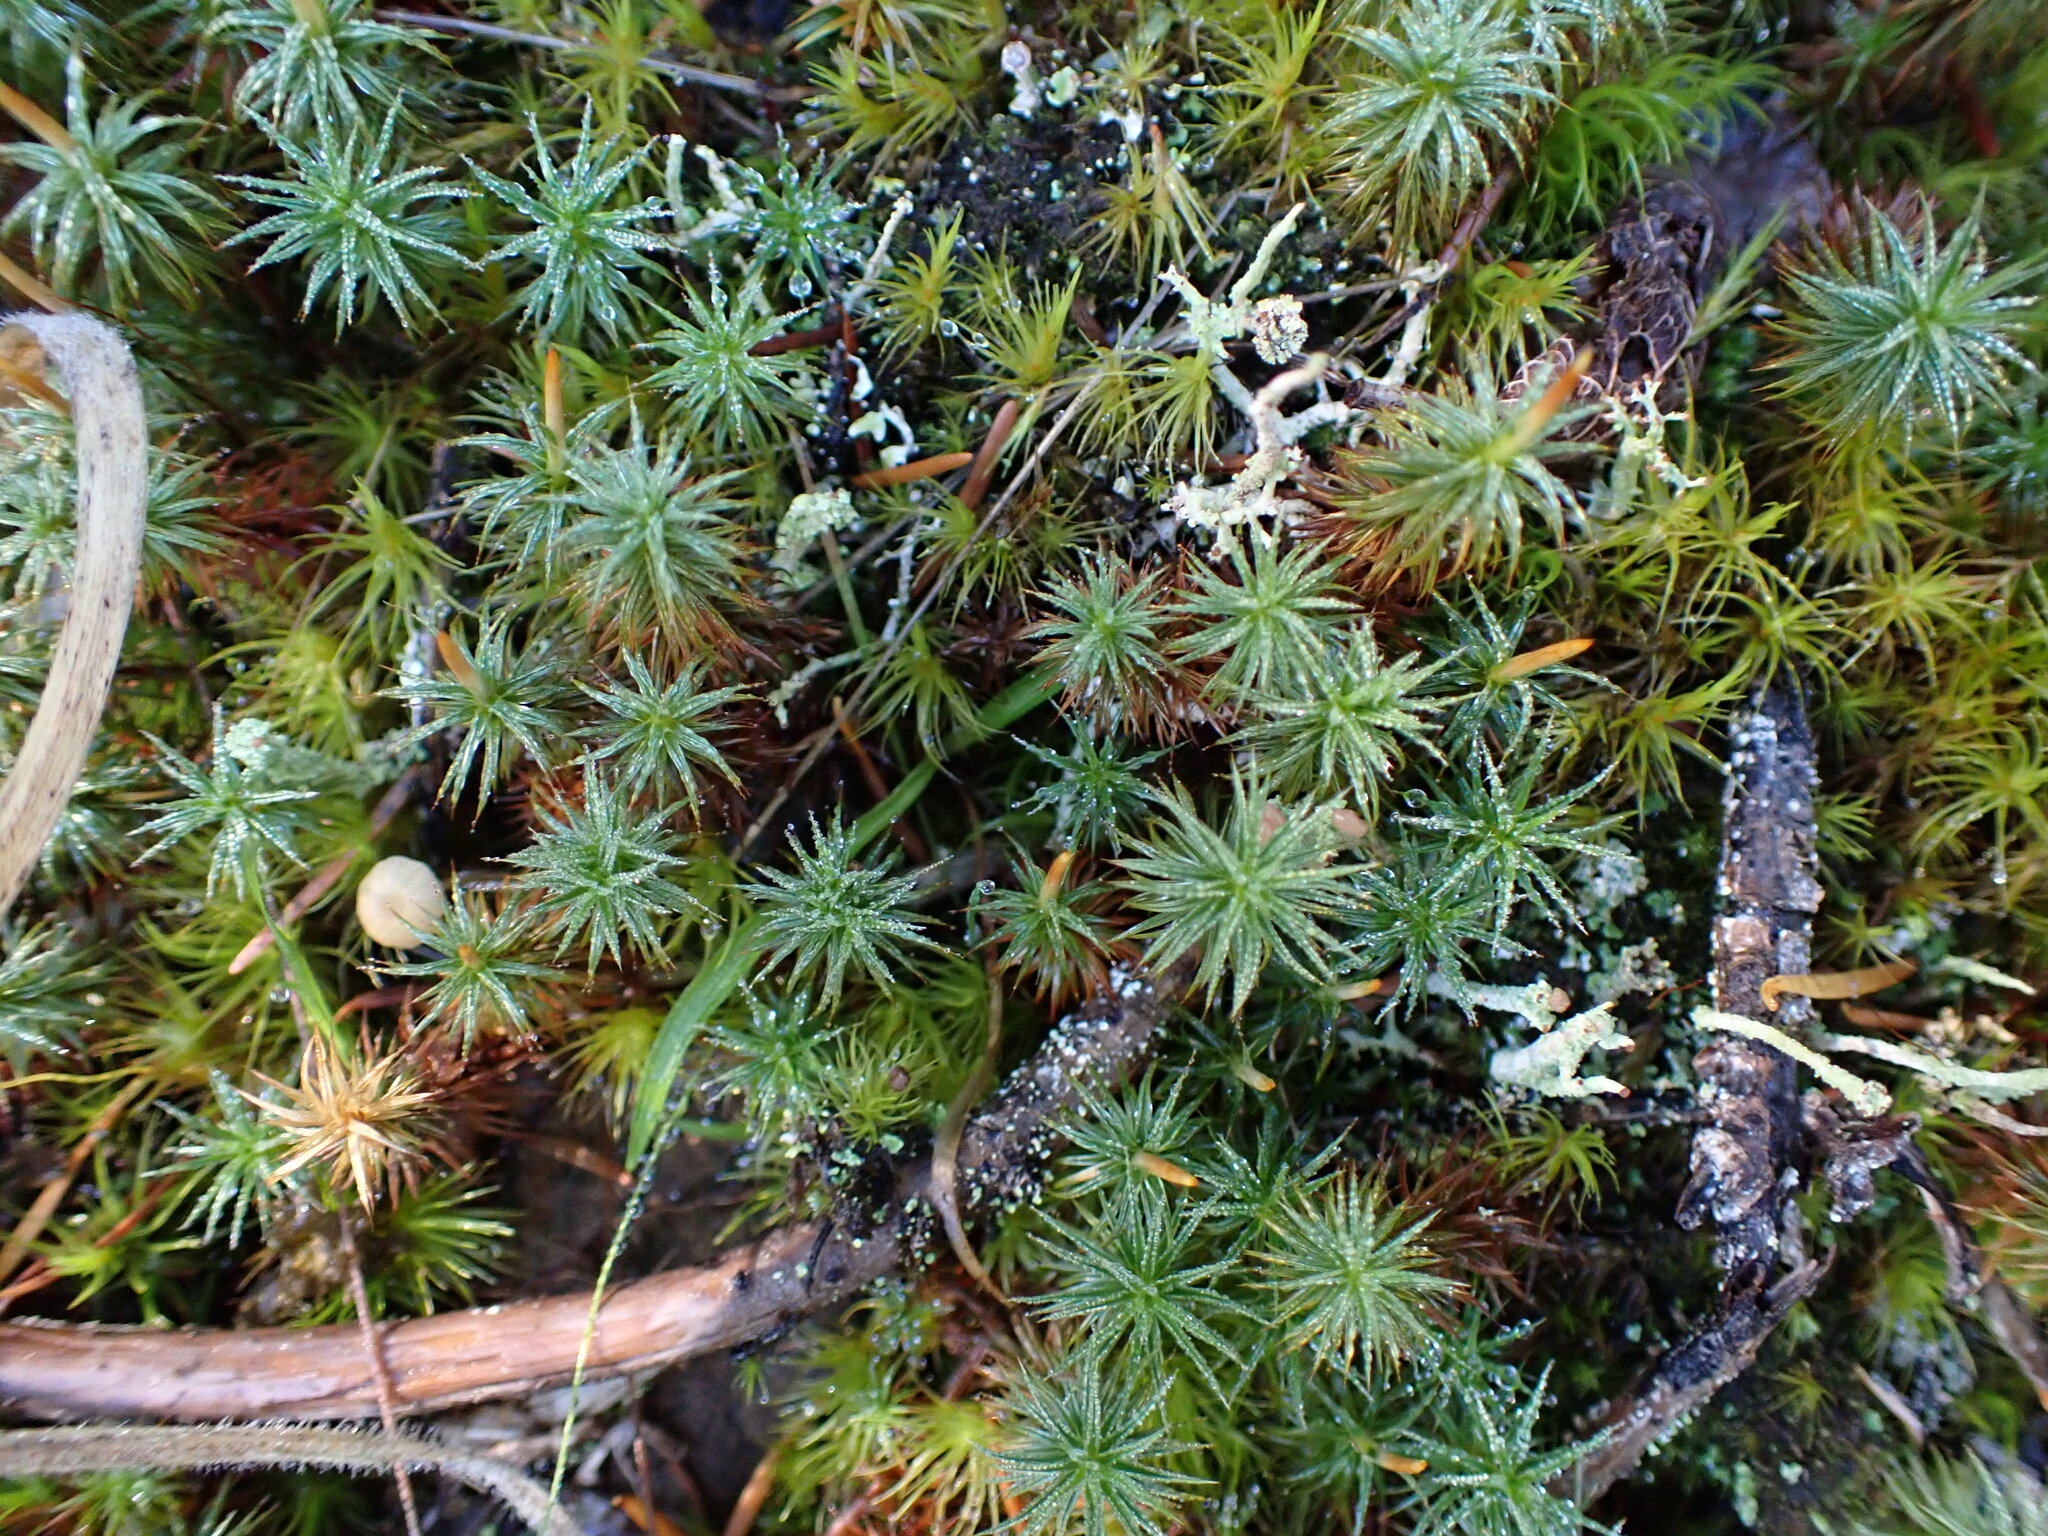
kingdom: Plantae
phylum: Bryophyta
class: Polytrichopsida
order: Polytrichales
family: Polytrichaceae
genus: Polytrichum
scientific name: Polytrichum juniperinum
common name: Juniper haircap moss
